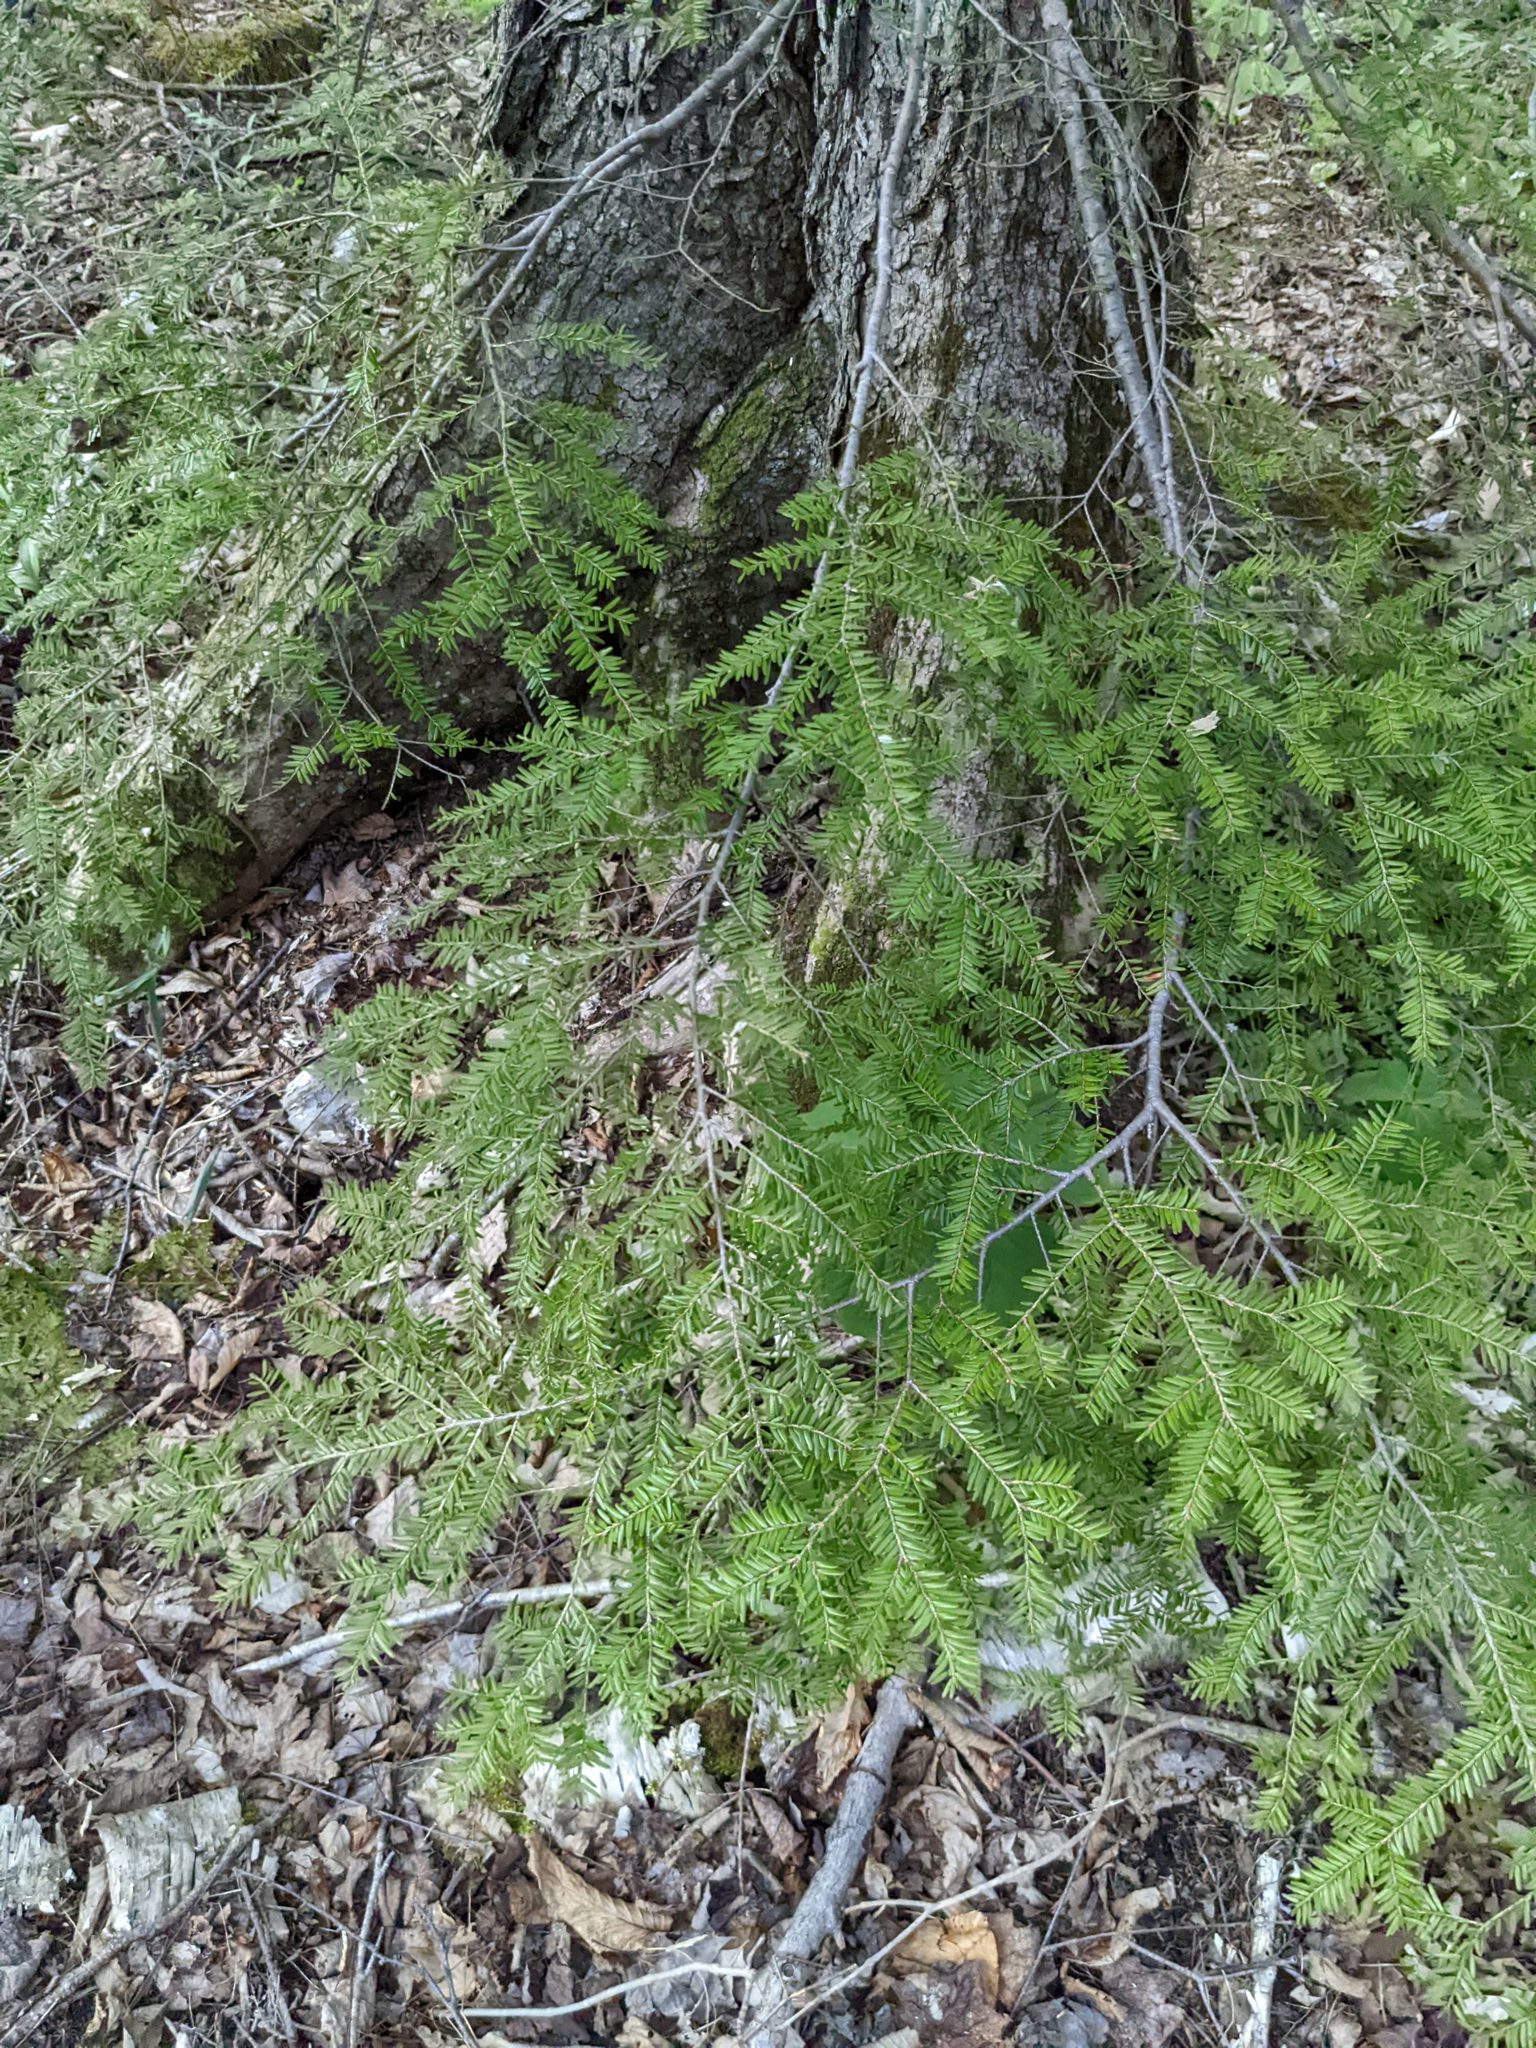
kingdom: Plantae
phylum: Tracheophyta
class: Pinopsida
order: Pinales
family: Pinaceae
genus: Tsuga
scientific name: Tsuga canadensis
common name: Eastern hemlock
